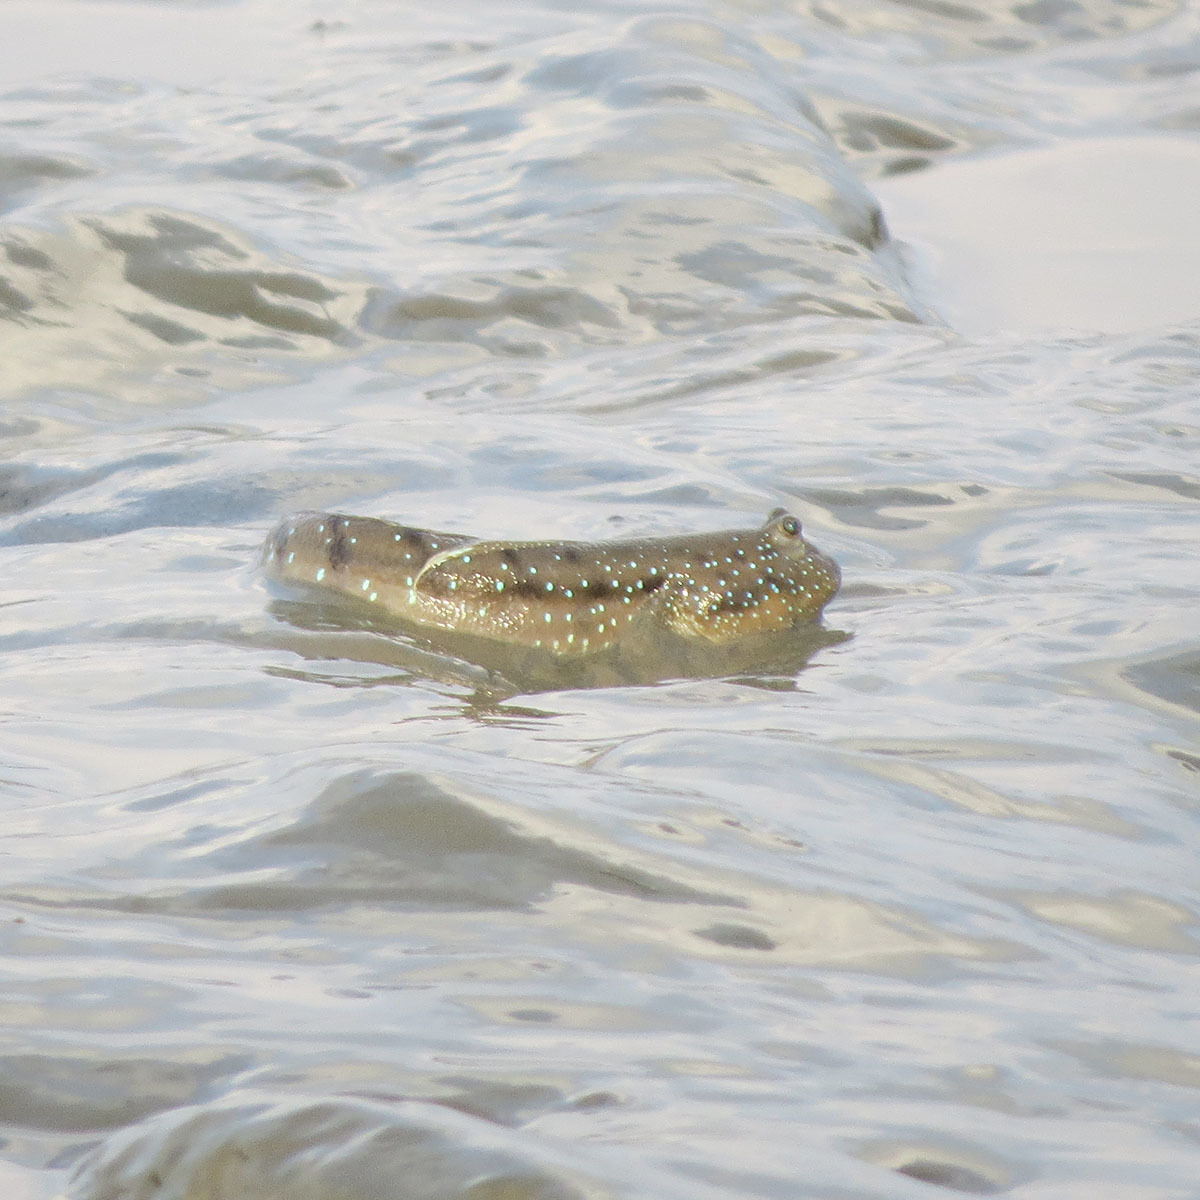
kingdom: Animalia
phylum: Chordata
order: Perciformes
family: Gobiidae
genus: Boleophthalmus
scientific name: Boleophthalmus boddarti
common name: Boddart's goggle-eyed goby
